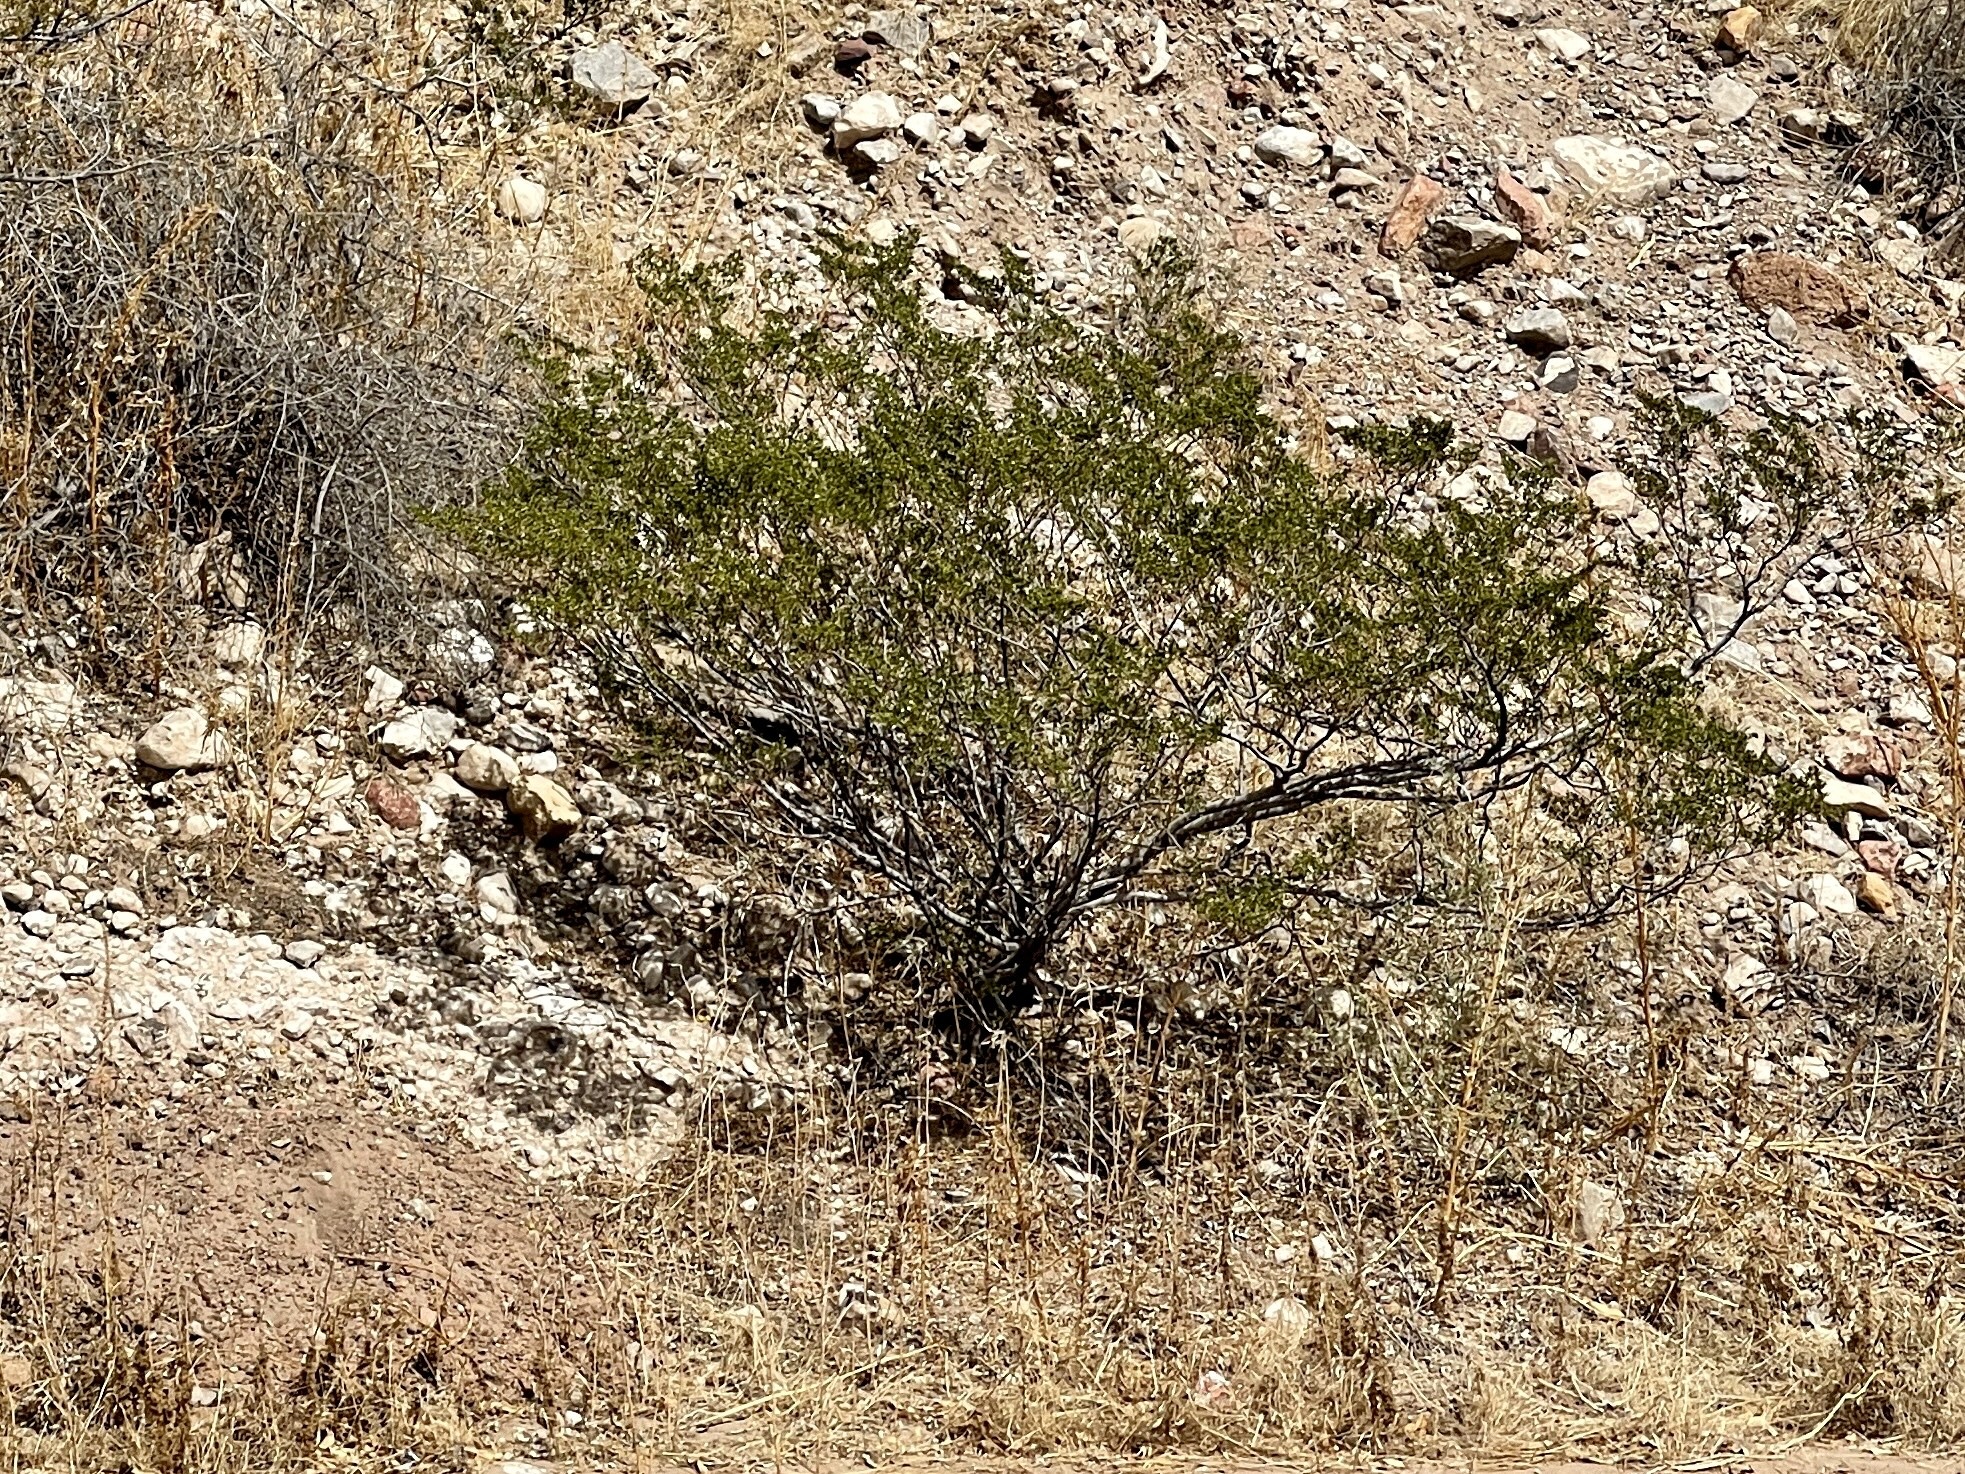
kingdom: Plantae
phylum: Tracheophyta
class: Magnoliopsida
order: Zygophyllales
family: Zygophyllaceae
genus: Larrea
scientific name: Larrea tridentata
